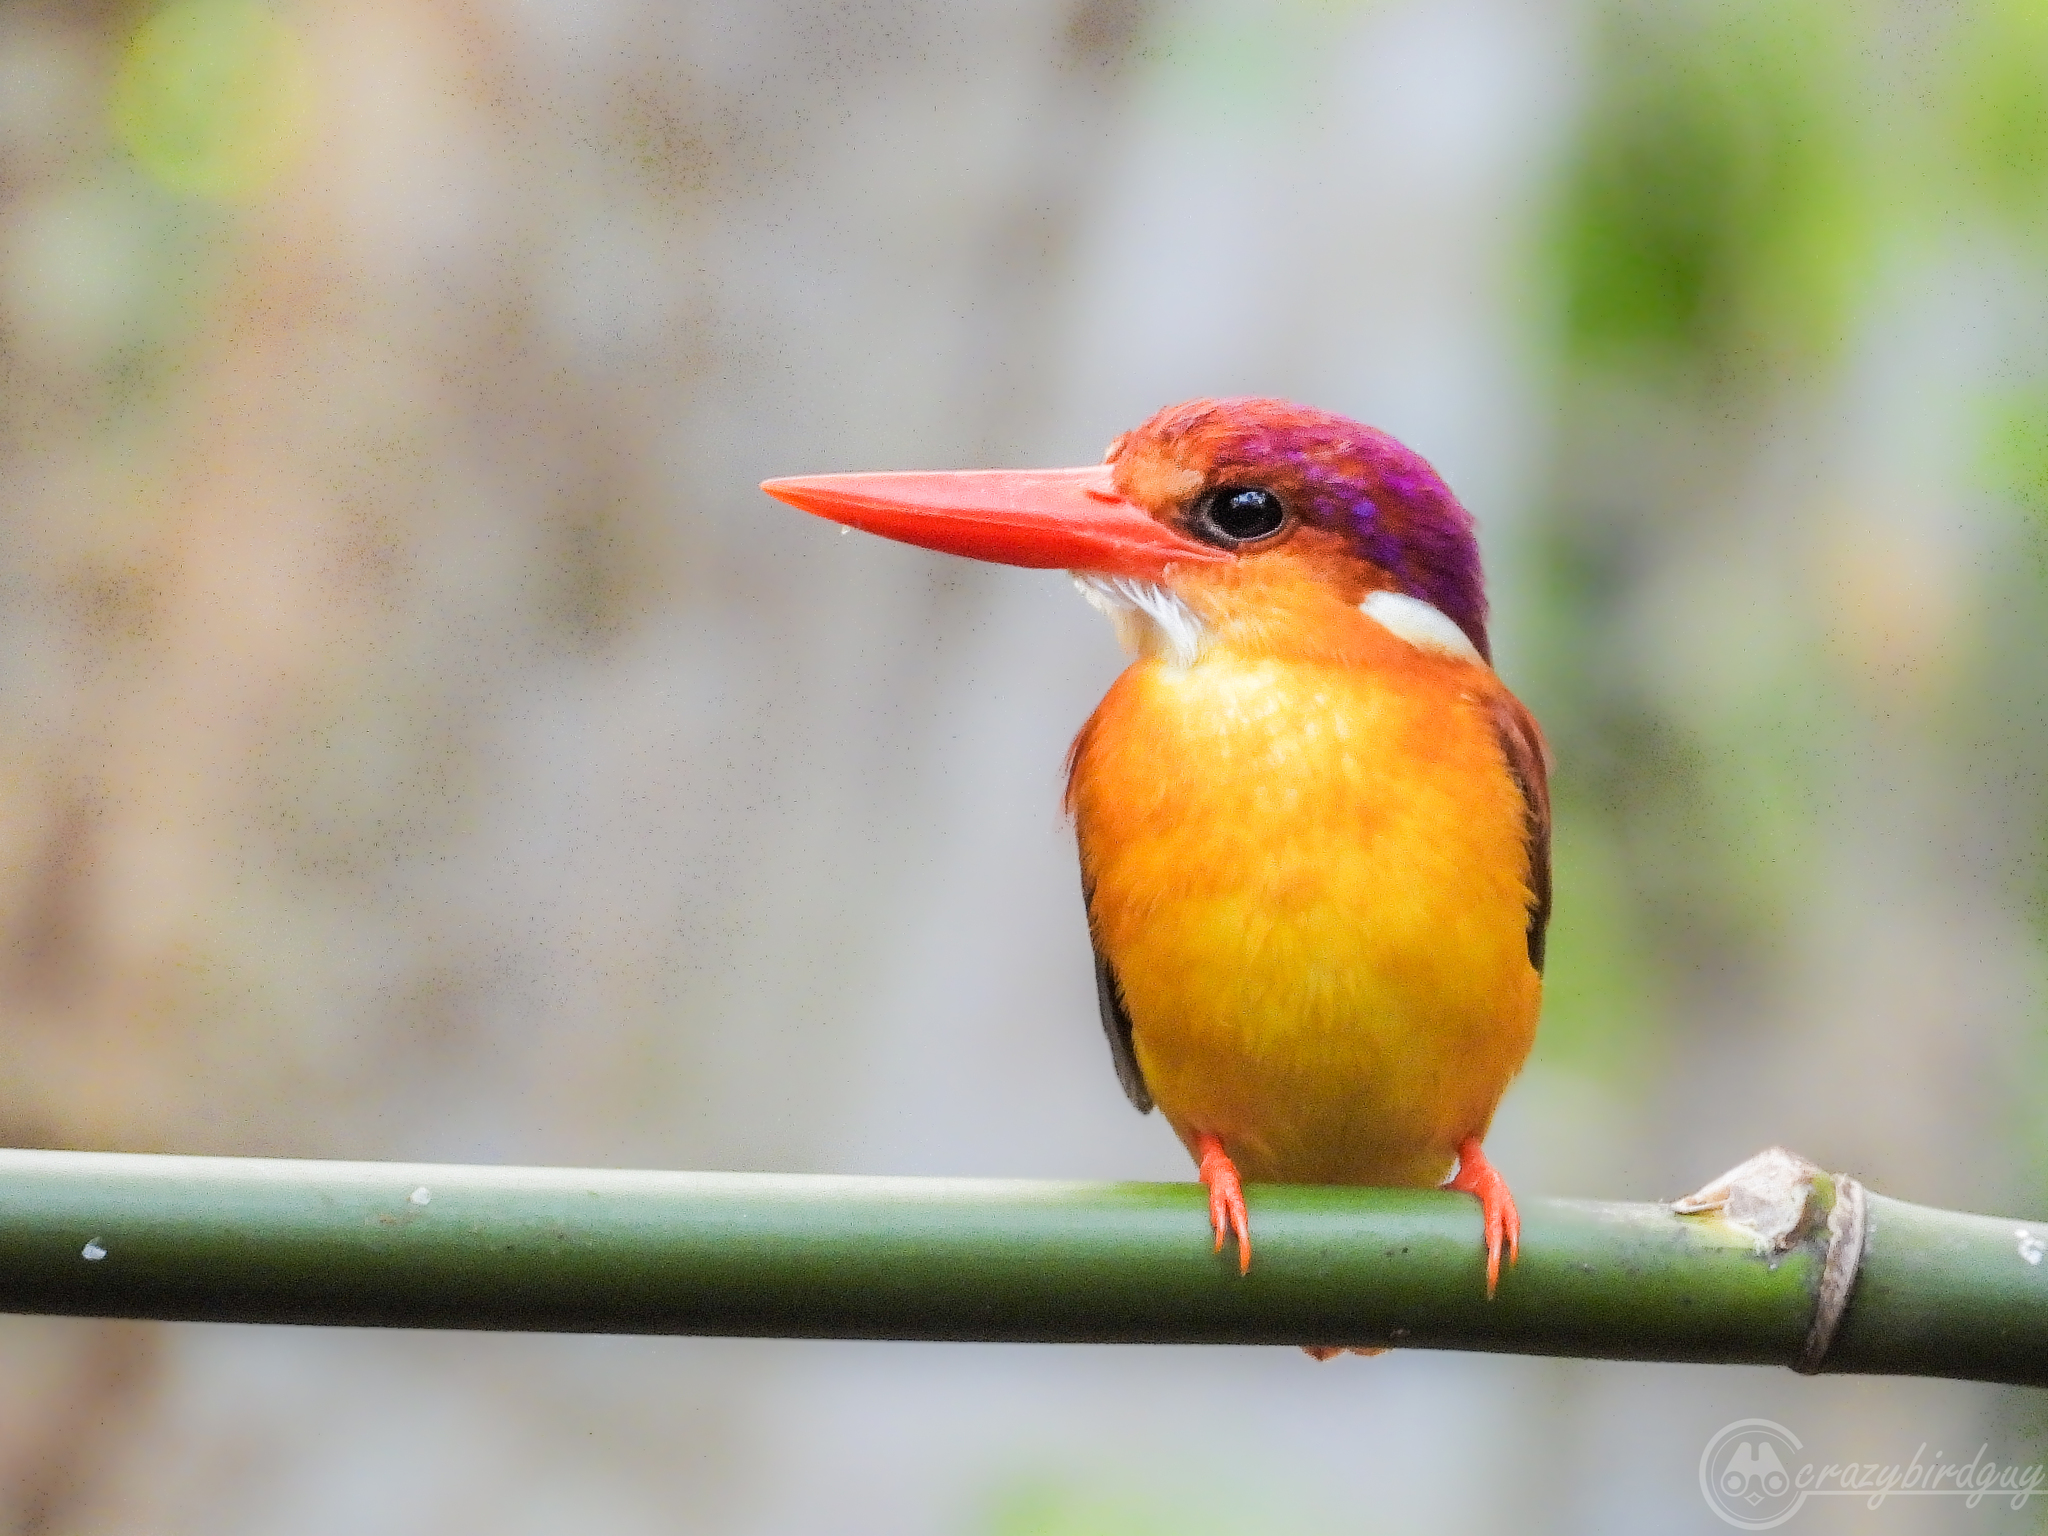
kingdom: Animalia
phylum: Chordata
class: Aves
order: Coraciiformes
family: Alcedinidae
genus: Ceyx
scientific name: Ceyx erithaca
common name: Oriental dwarf kingfisher
